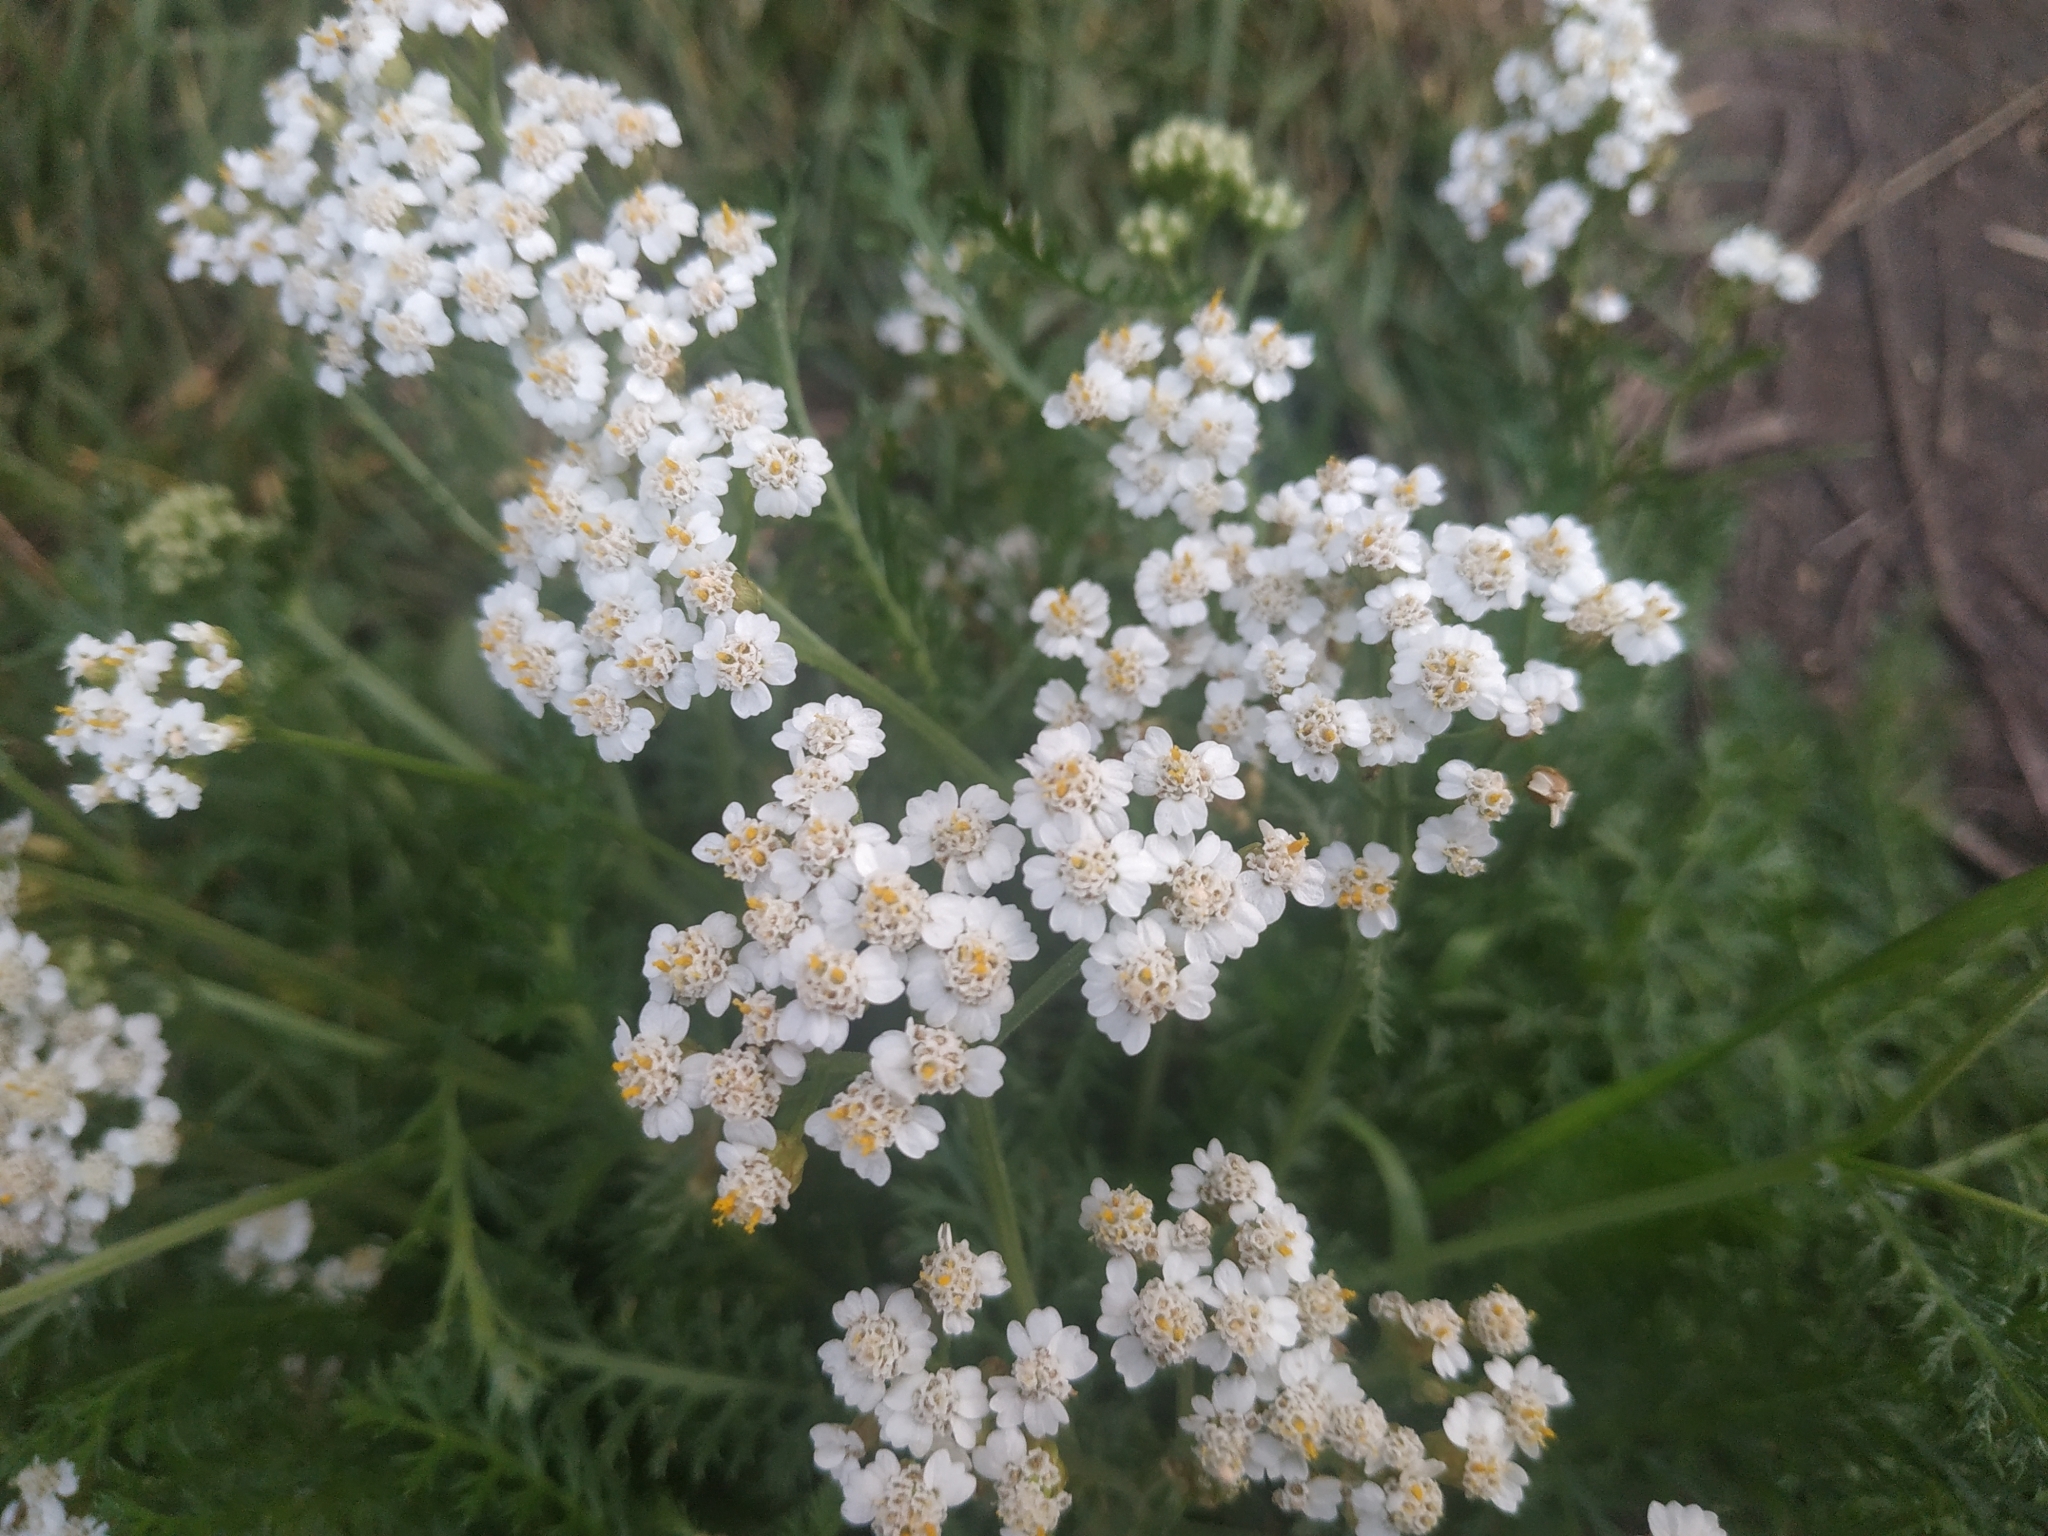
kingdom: Plantae
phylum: Tracheophyta
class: Magnoliopsida
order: Asterales
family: Asteraceae
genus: Achillea
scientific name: Achillea millefolium
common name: Yarrow
